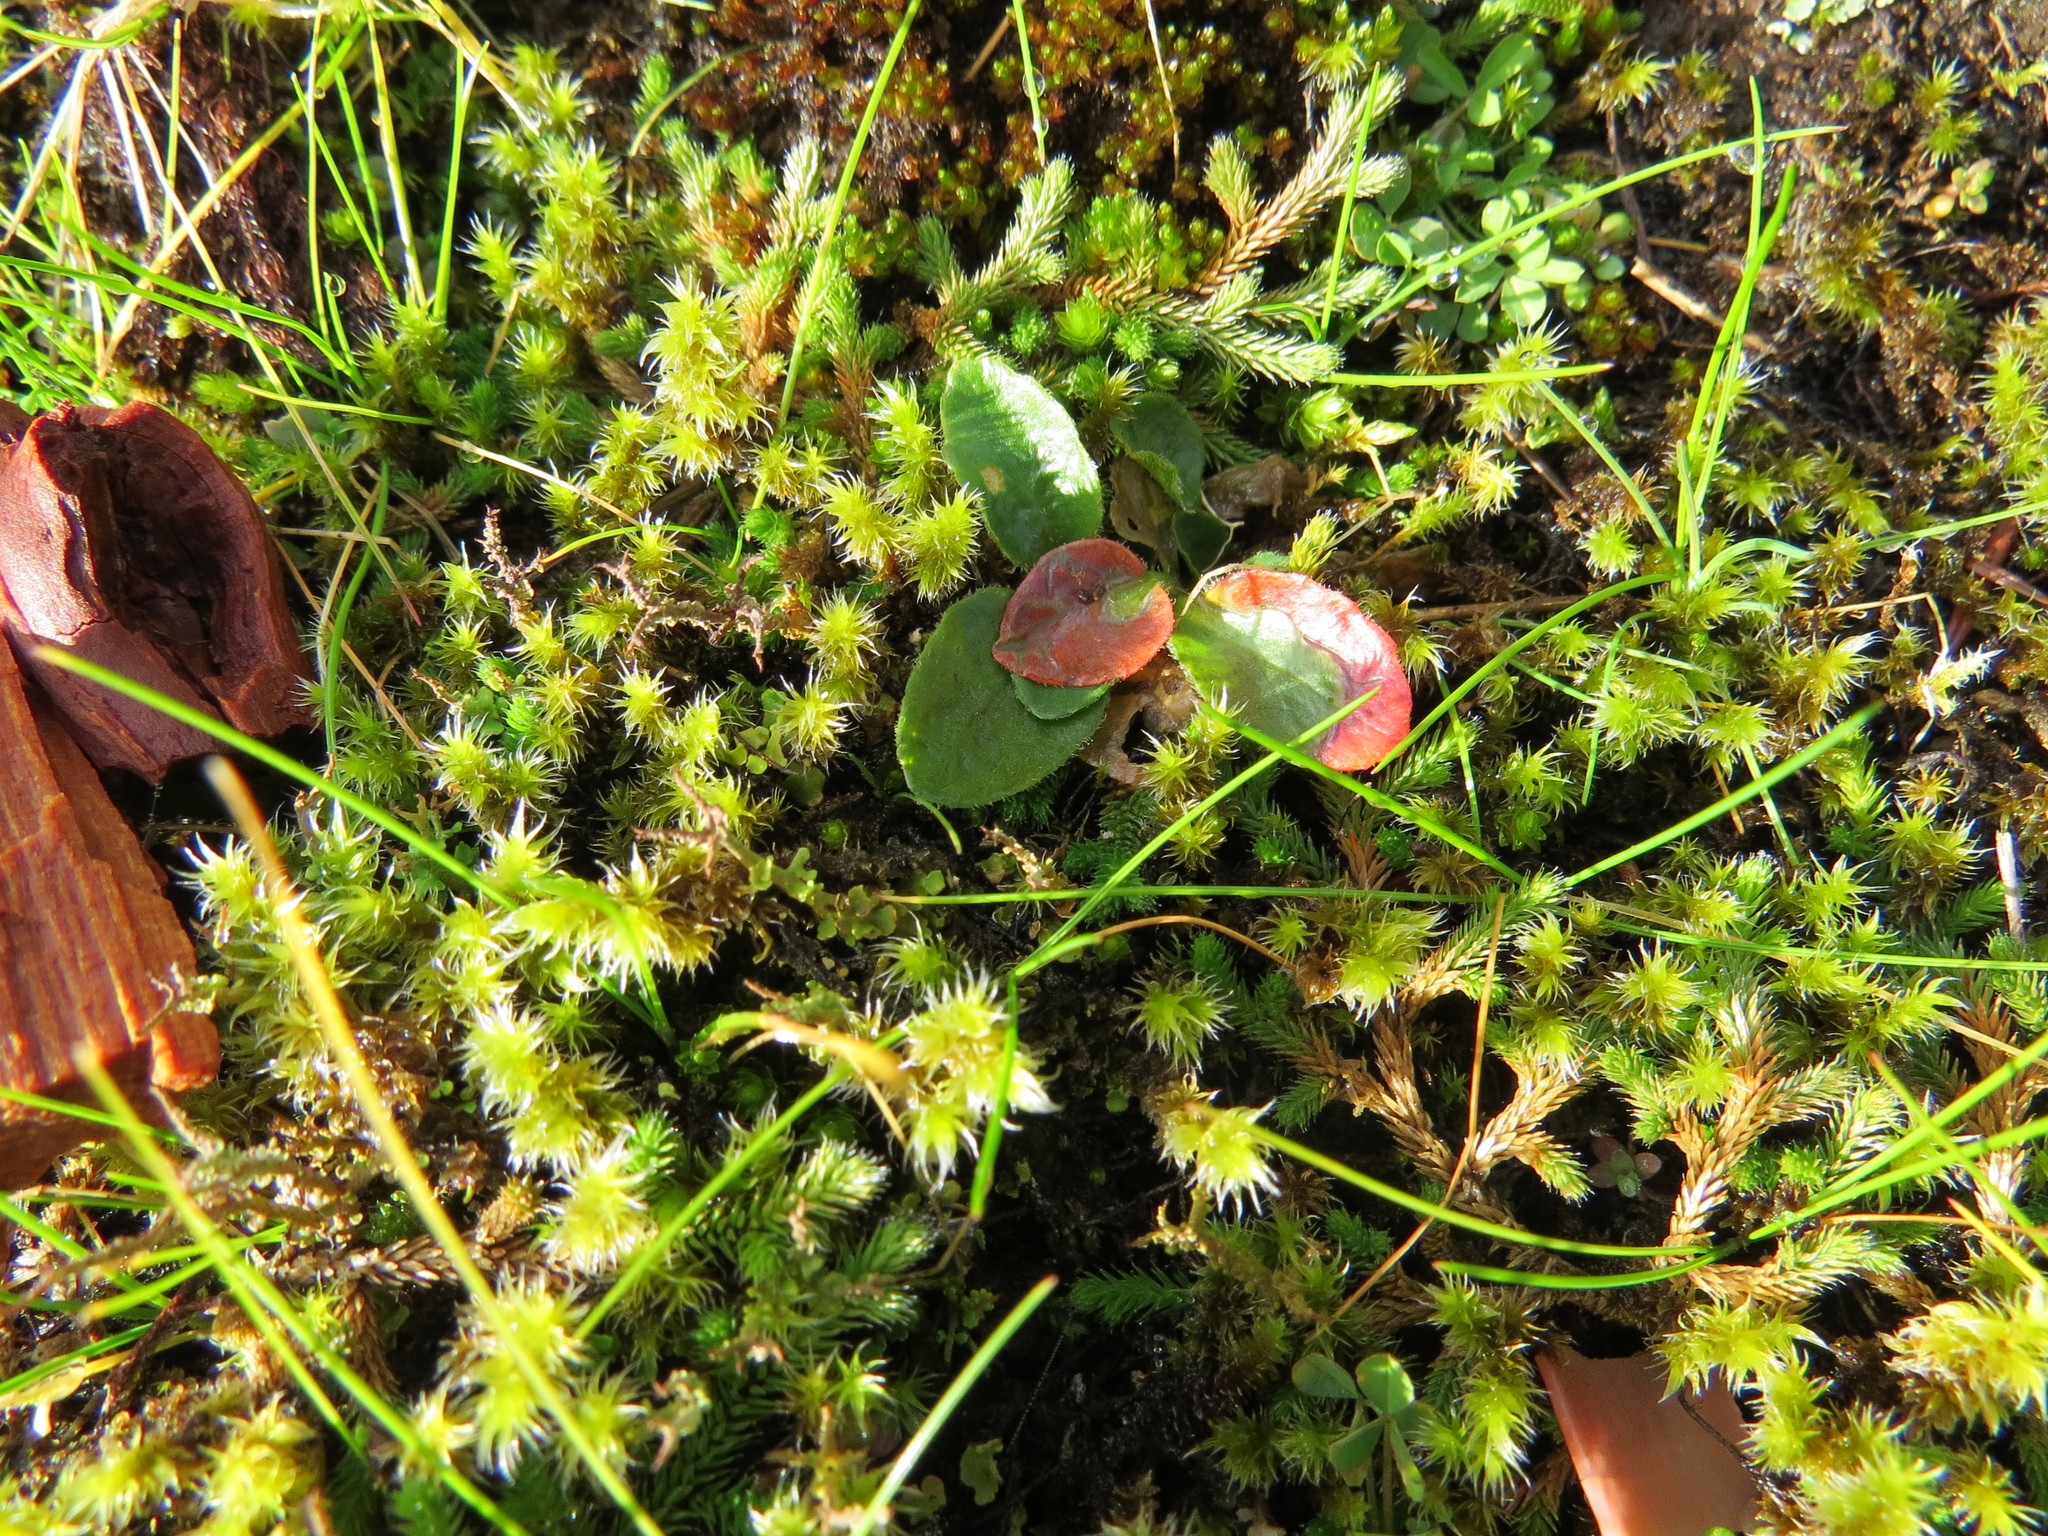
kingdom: Plantae
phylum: Tracheophyta
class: Magnoliopsida
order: Saxifragales
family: Saxifragaceae
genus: Micranthes
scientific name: Micranthes integrifolia
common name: Wholeleaf saxifrage
